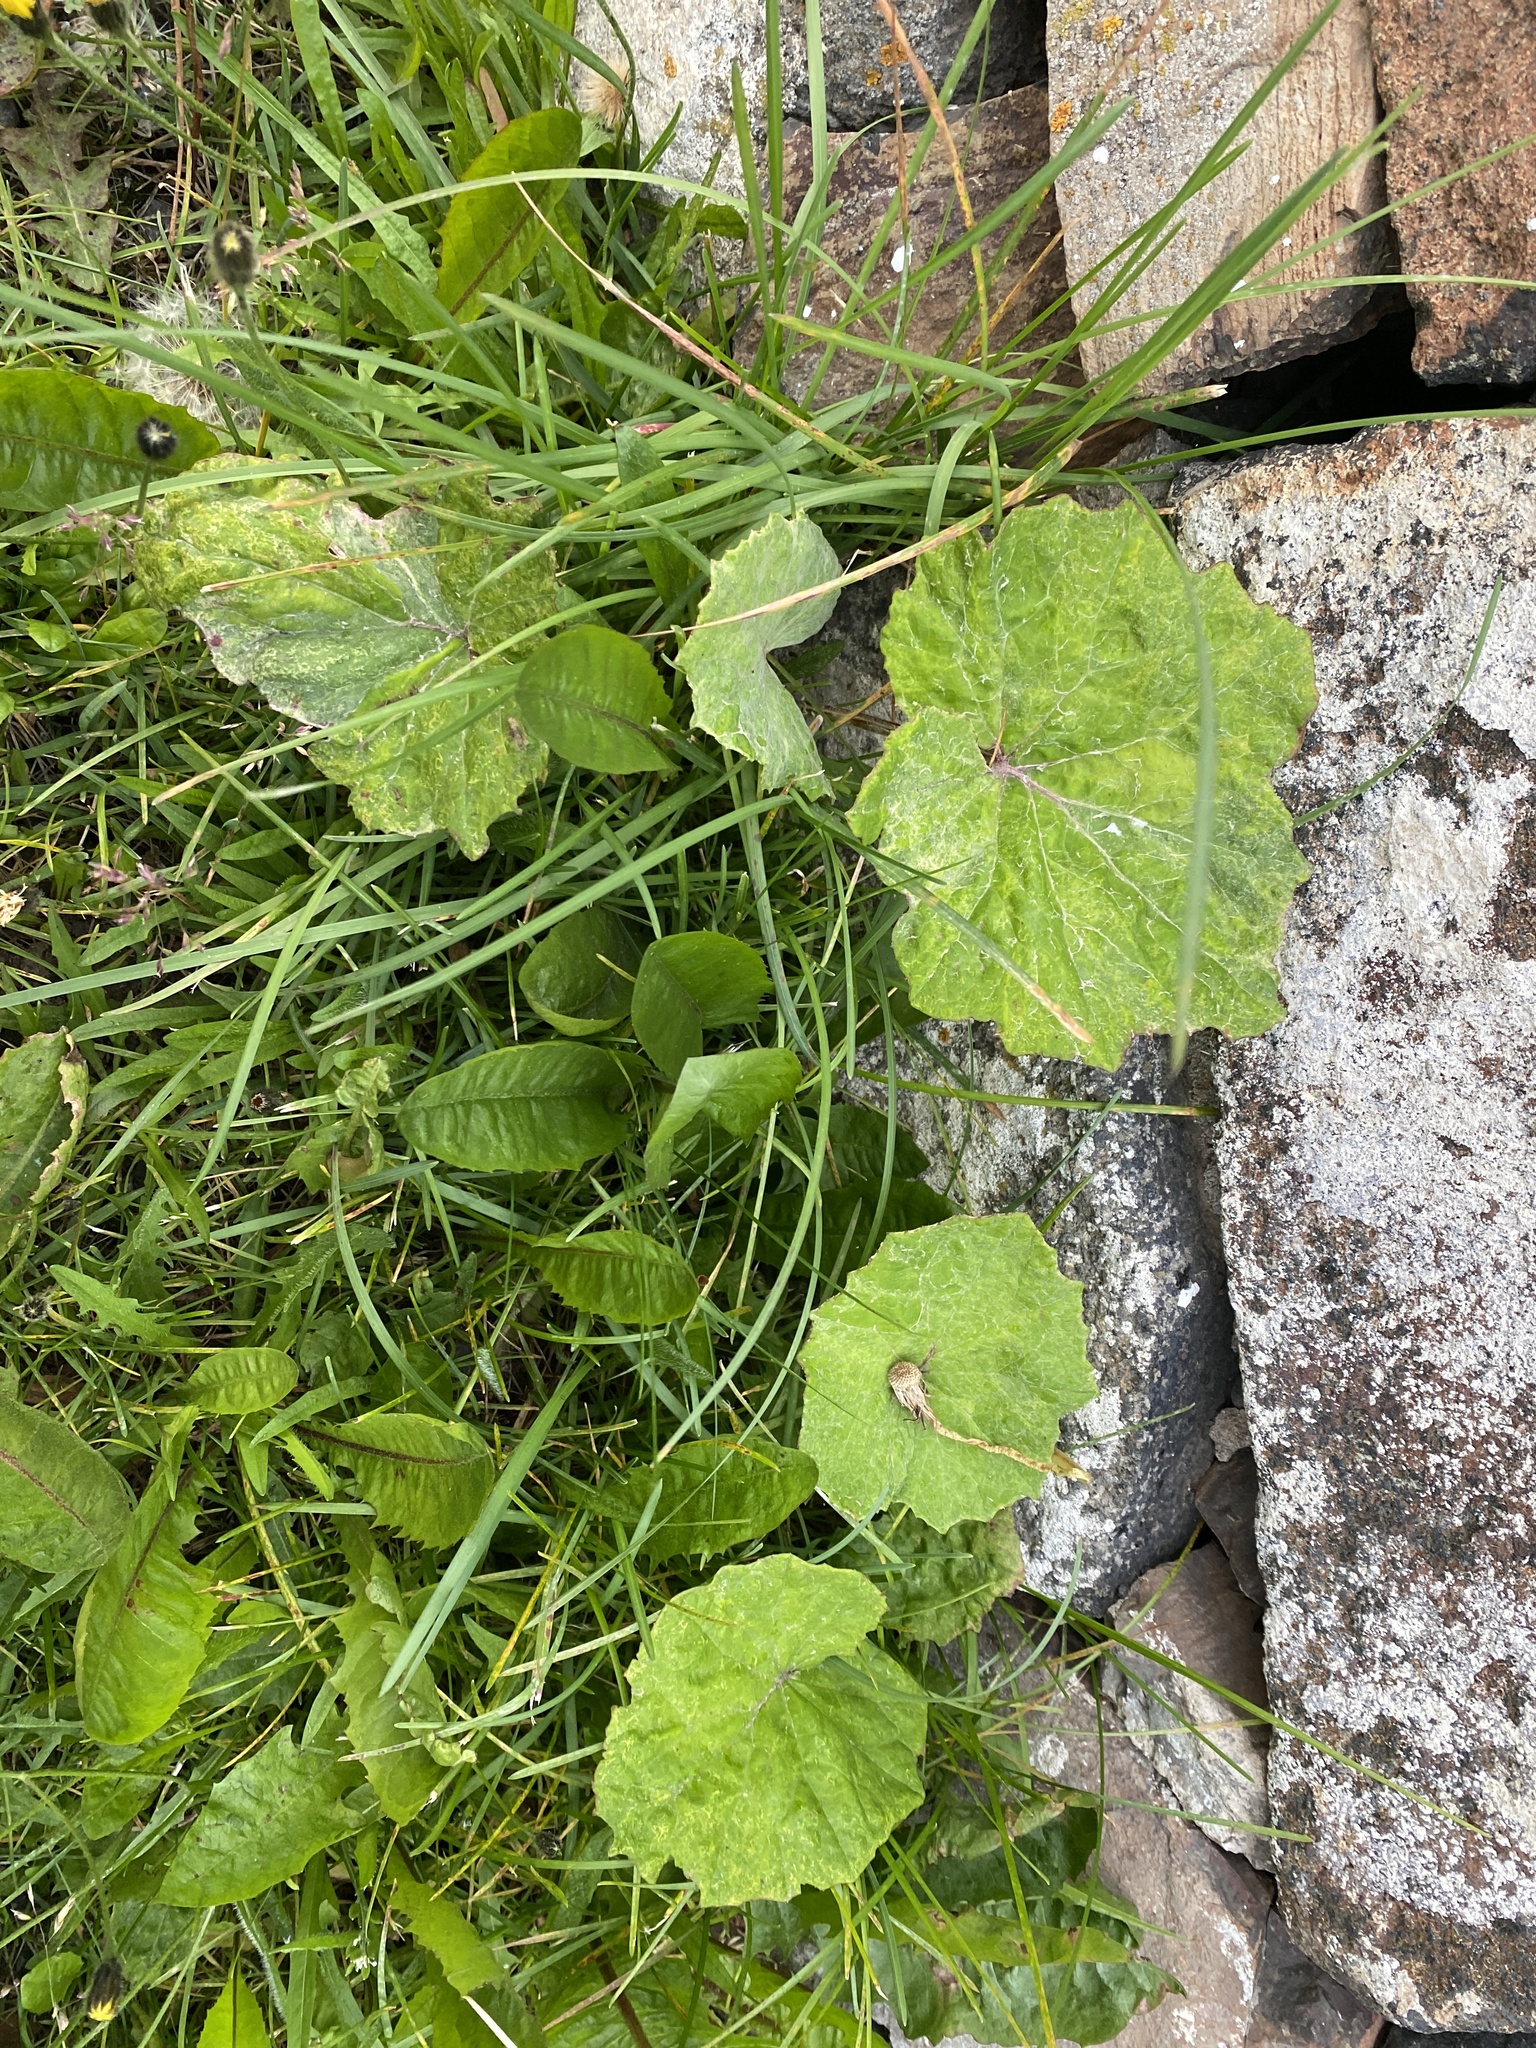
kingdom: Plantae
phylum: Tracheophyta
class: Magnoliopsida
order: Asterales
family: Asteraceae
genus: Tussilago
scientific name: Tussilago farfara
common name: Coltsfoot
